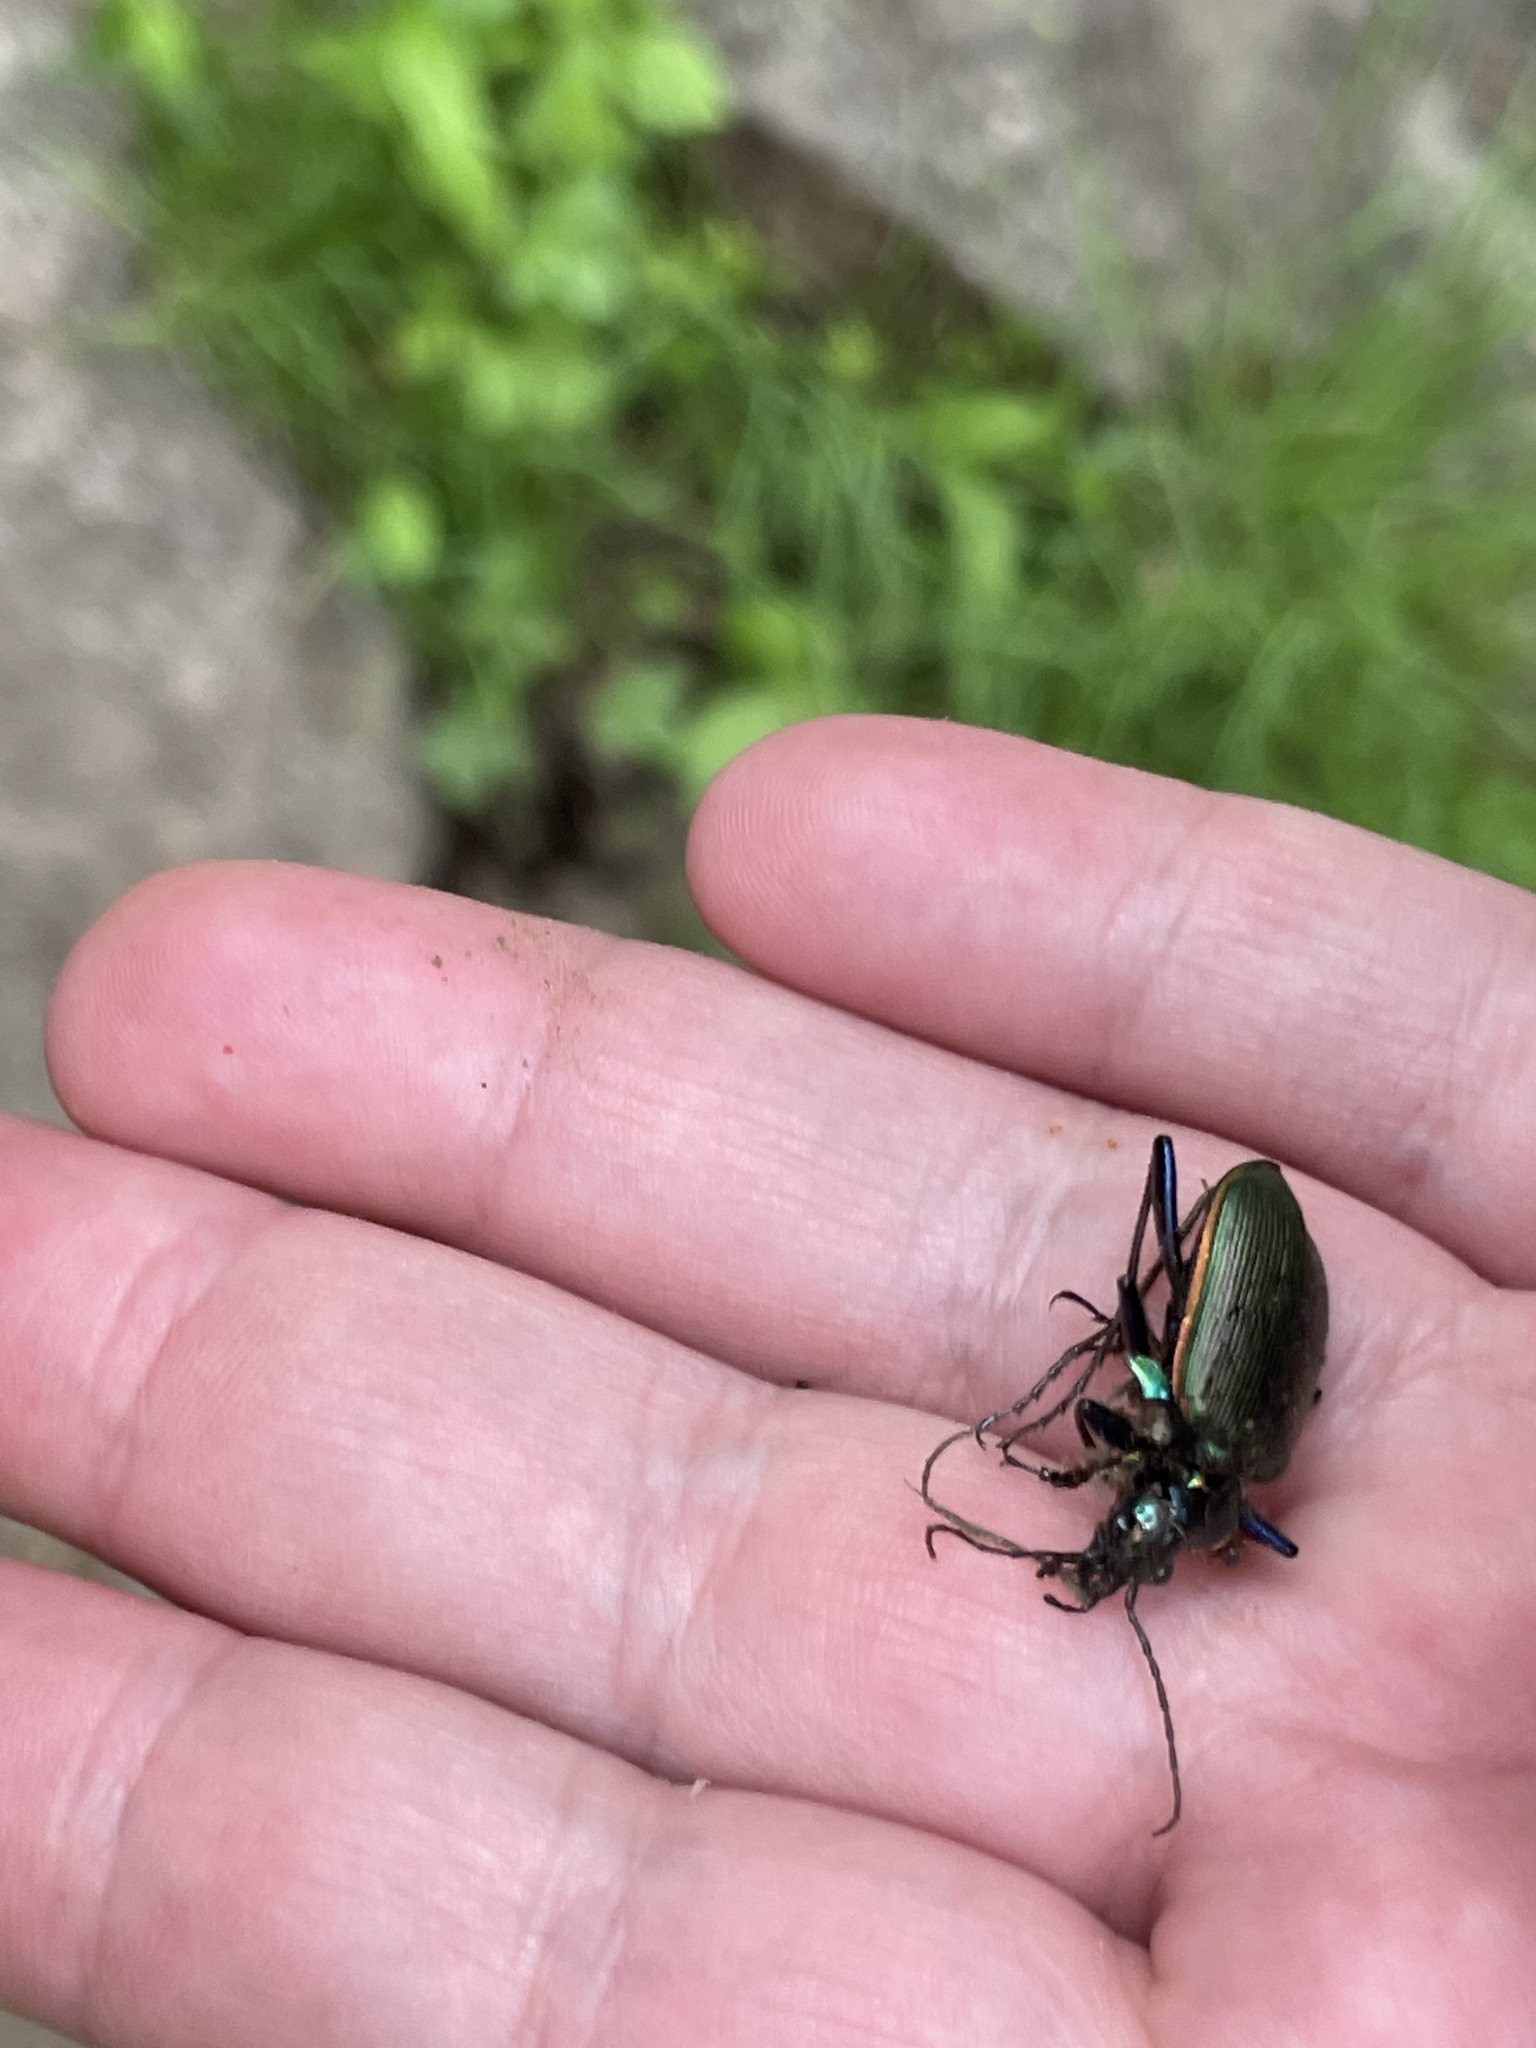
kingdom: Animalia
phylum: Arthropoda
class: Insecta
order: Coleoptera
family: Carabidae
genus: Calosoma
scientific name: Calosoma wilcoxi
